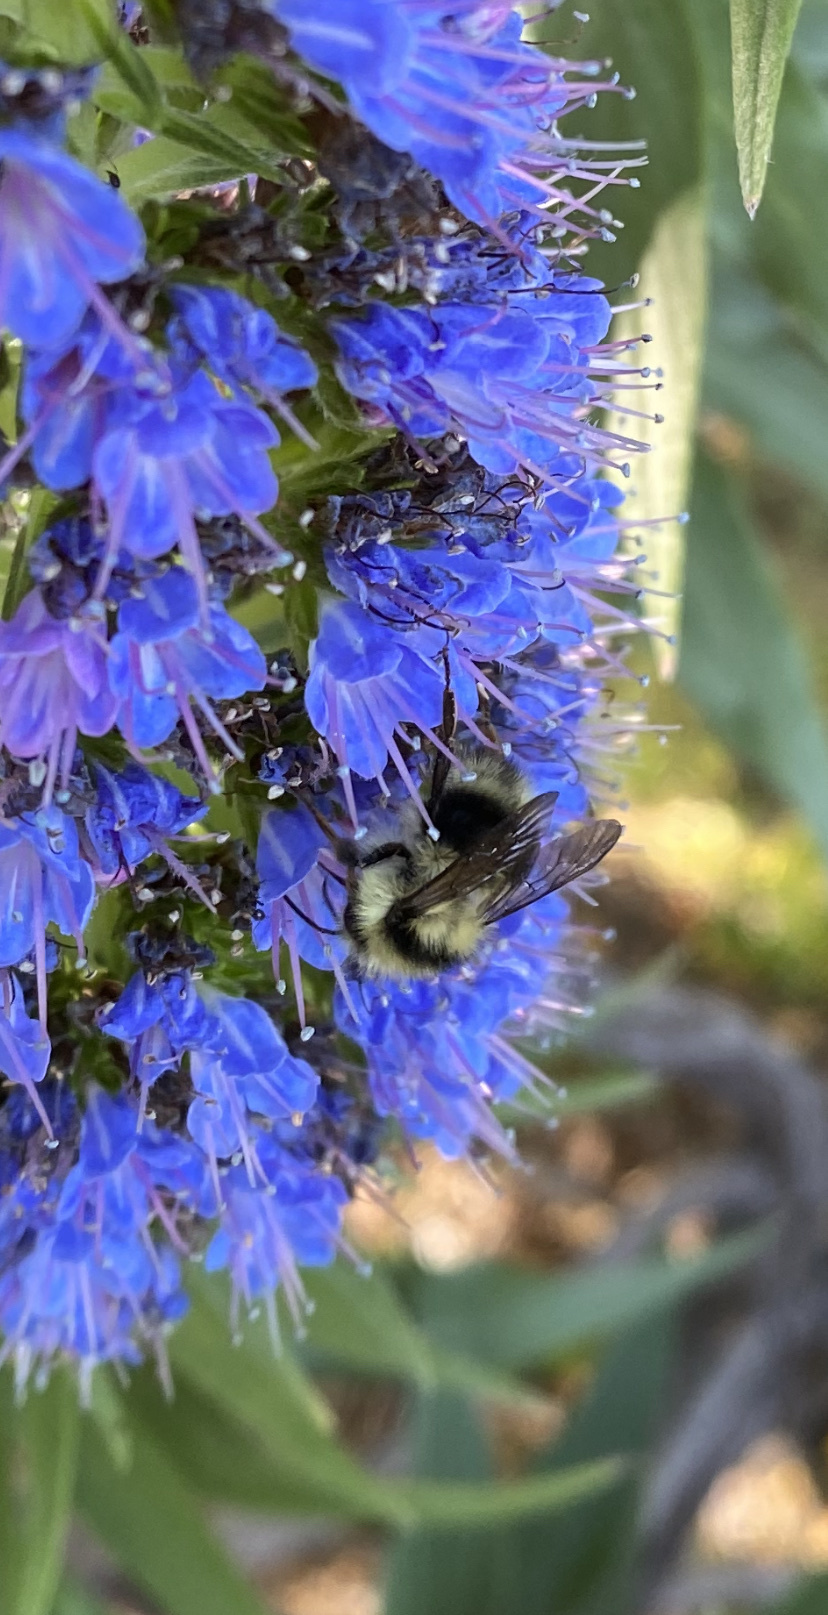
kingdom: Animalia
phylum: Arthropoda
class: Insecta
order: Hymenoptera
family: Apidae
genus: Bombus
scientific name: Bombus melanopygus
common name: Black tail bumble bee
